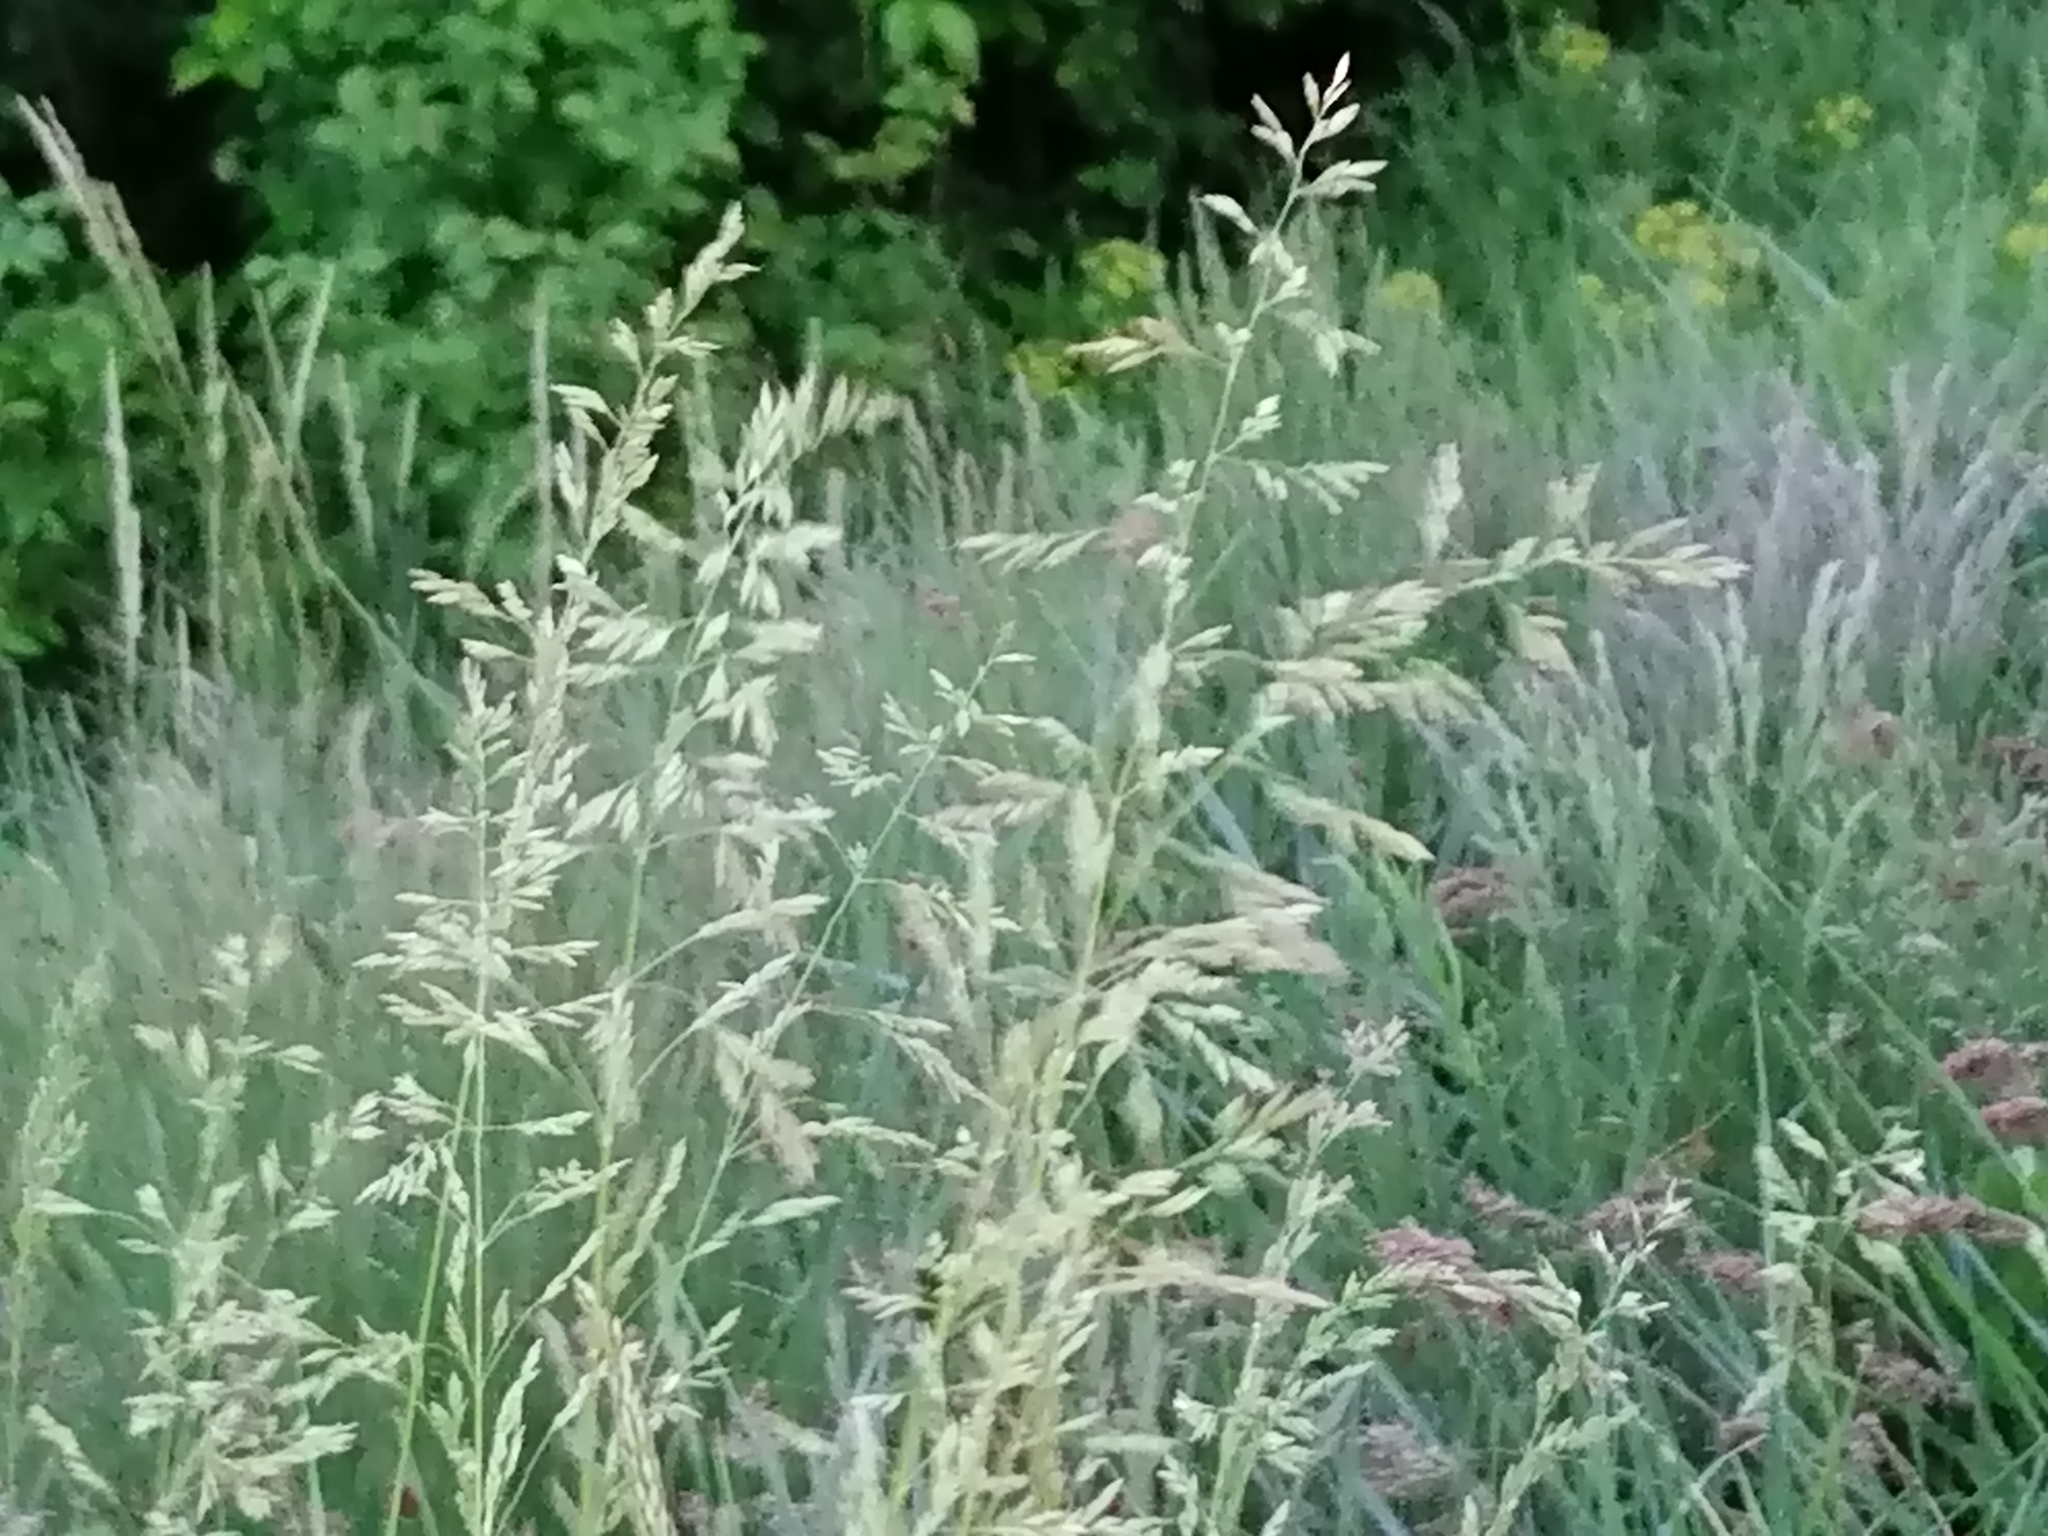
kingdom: Plantae
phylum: Tracheophyta
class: Liliopsida
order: Poales
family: Poaceae
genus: Poa
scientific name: Poa pratensis
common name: Kentucky bluegrass
